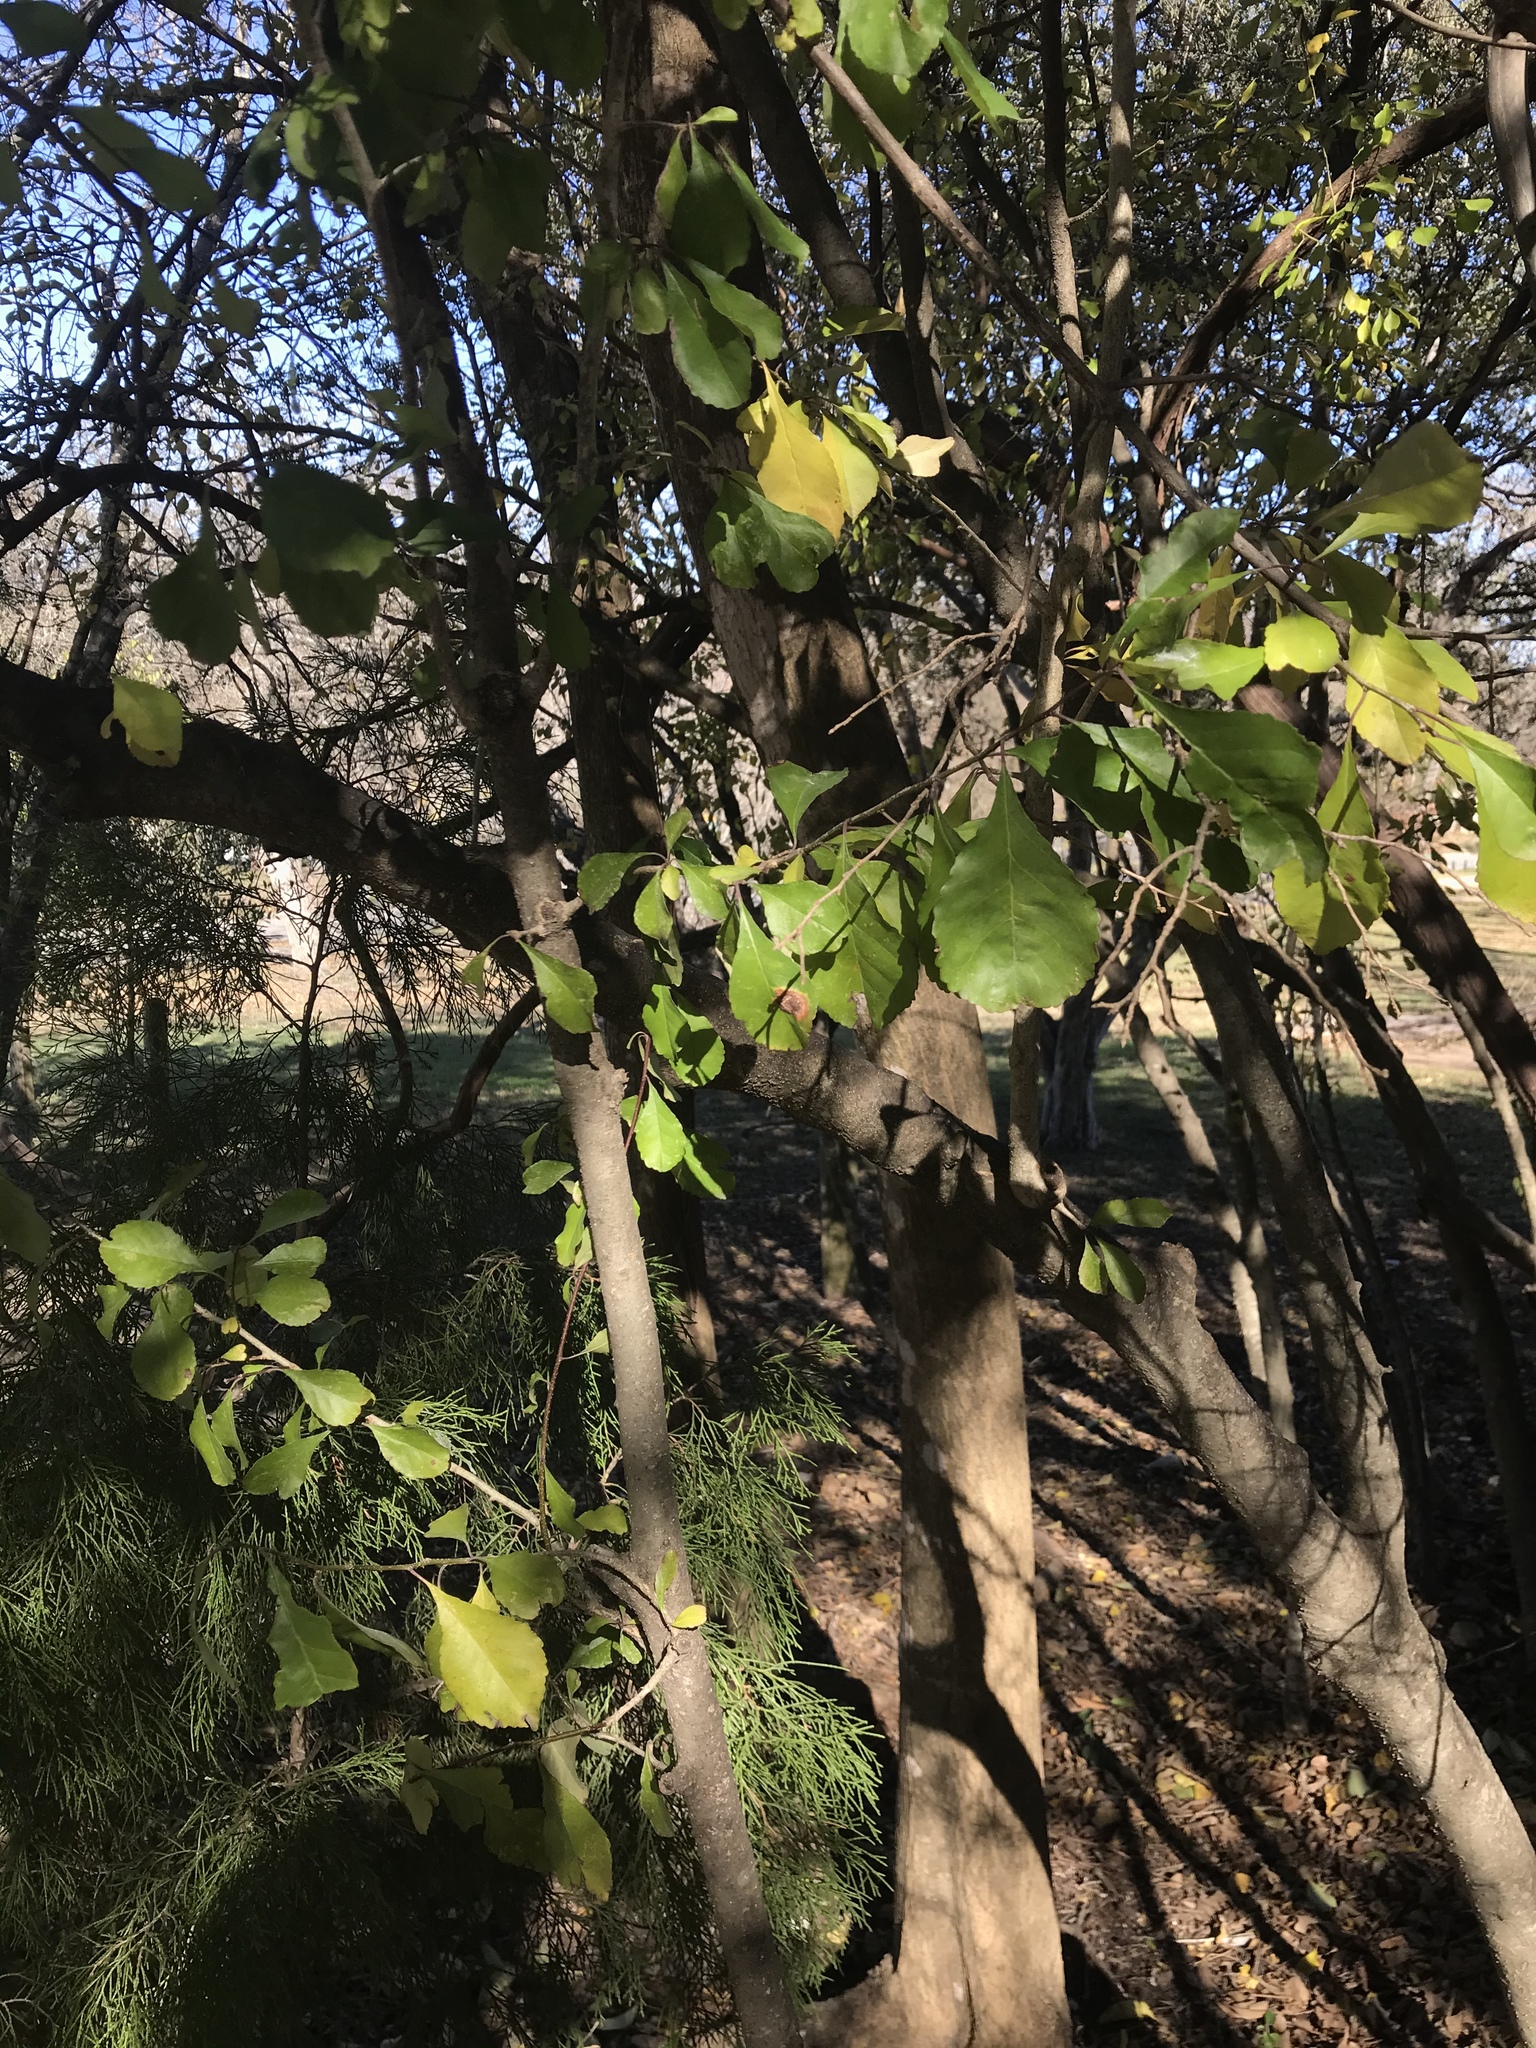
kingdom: Plantae
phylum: Tracheophyta
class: Magnoliopsida
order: Aquifoliales
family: Aquifoliaceae
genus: Ilex
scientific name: Ilex decidua
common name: Possum-haw
